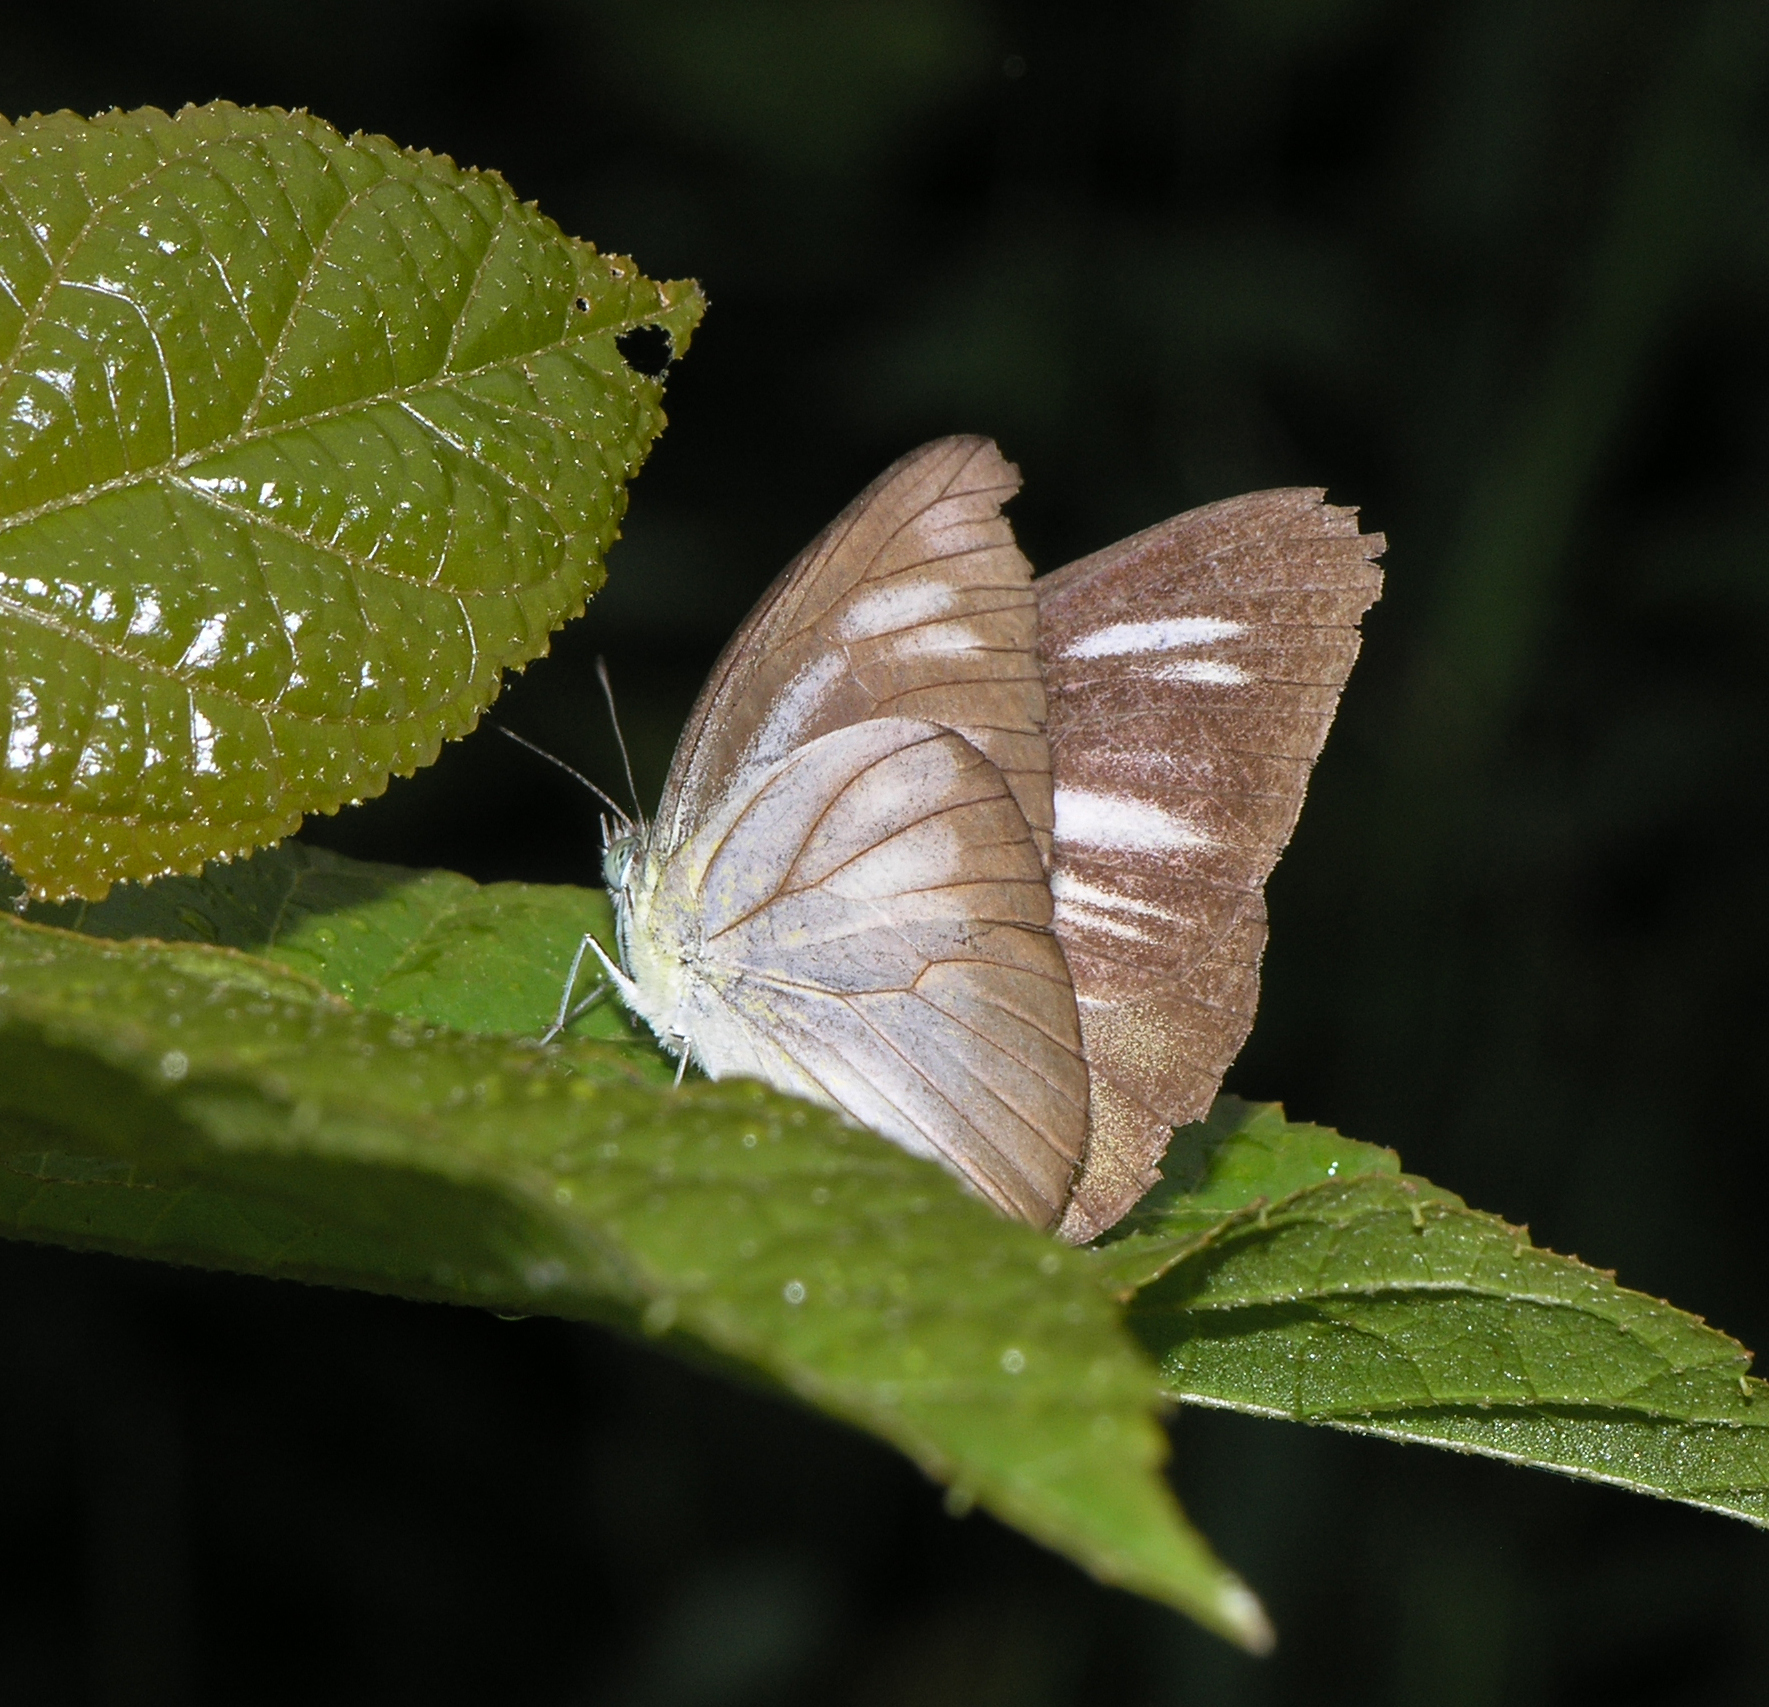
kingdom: Animalia
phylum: Arthropoda
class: Insecta
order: Lepidoptera
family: Pieridae
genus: Appias
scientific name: Appias lyncida
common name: Chocolate albatross
